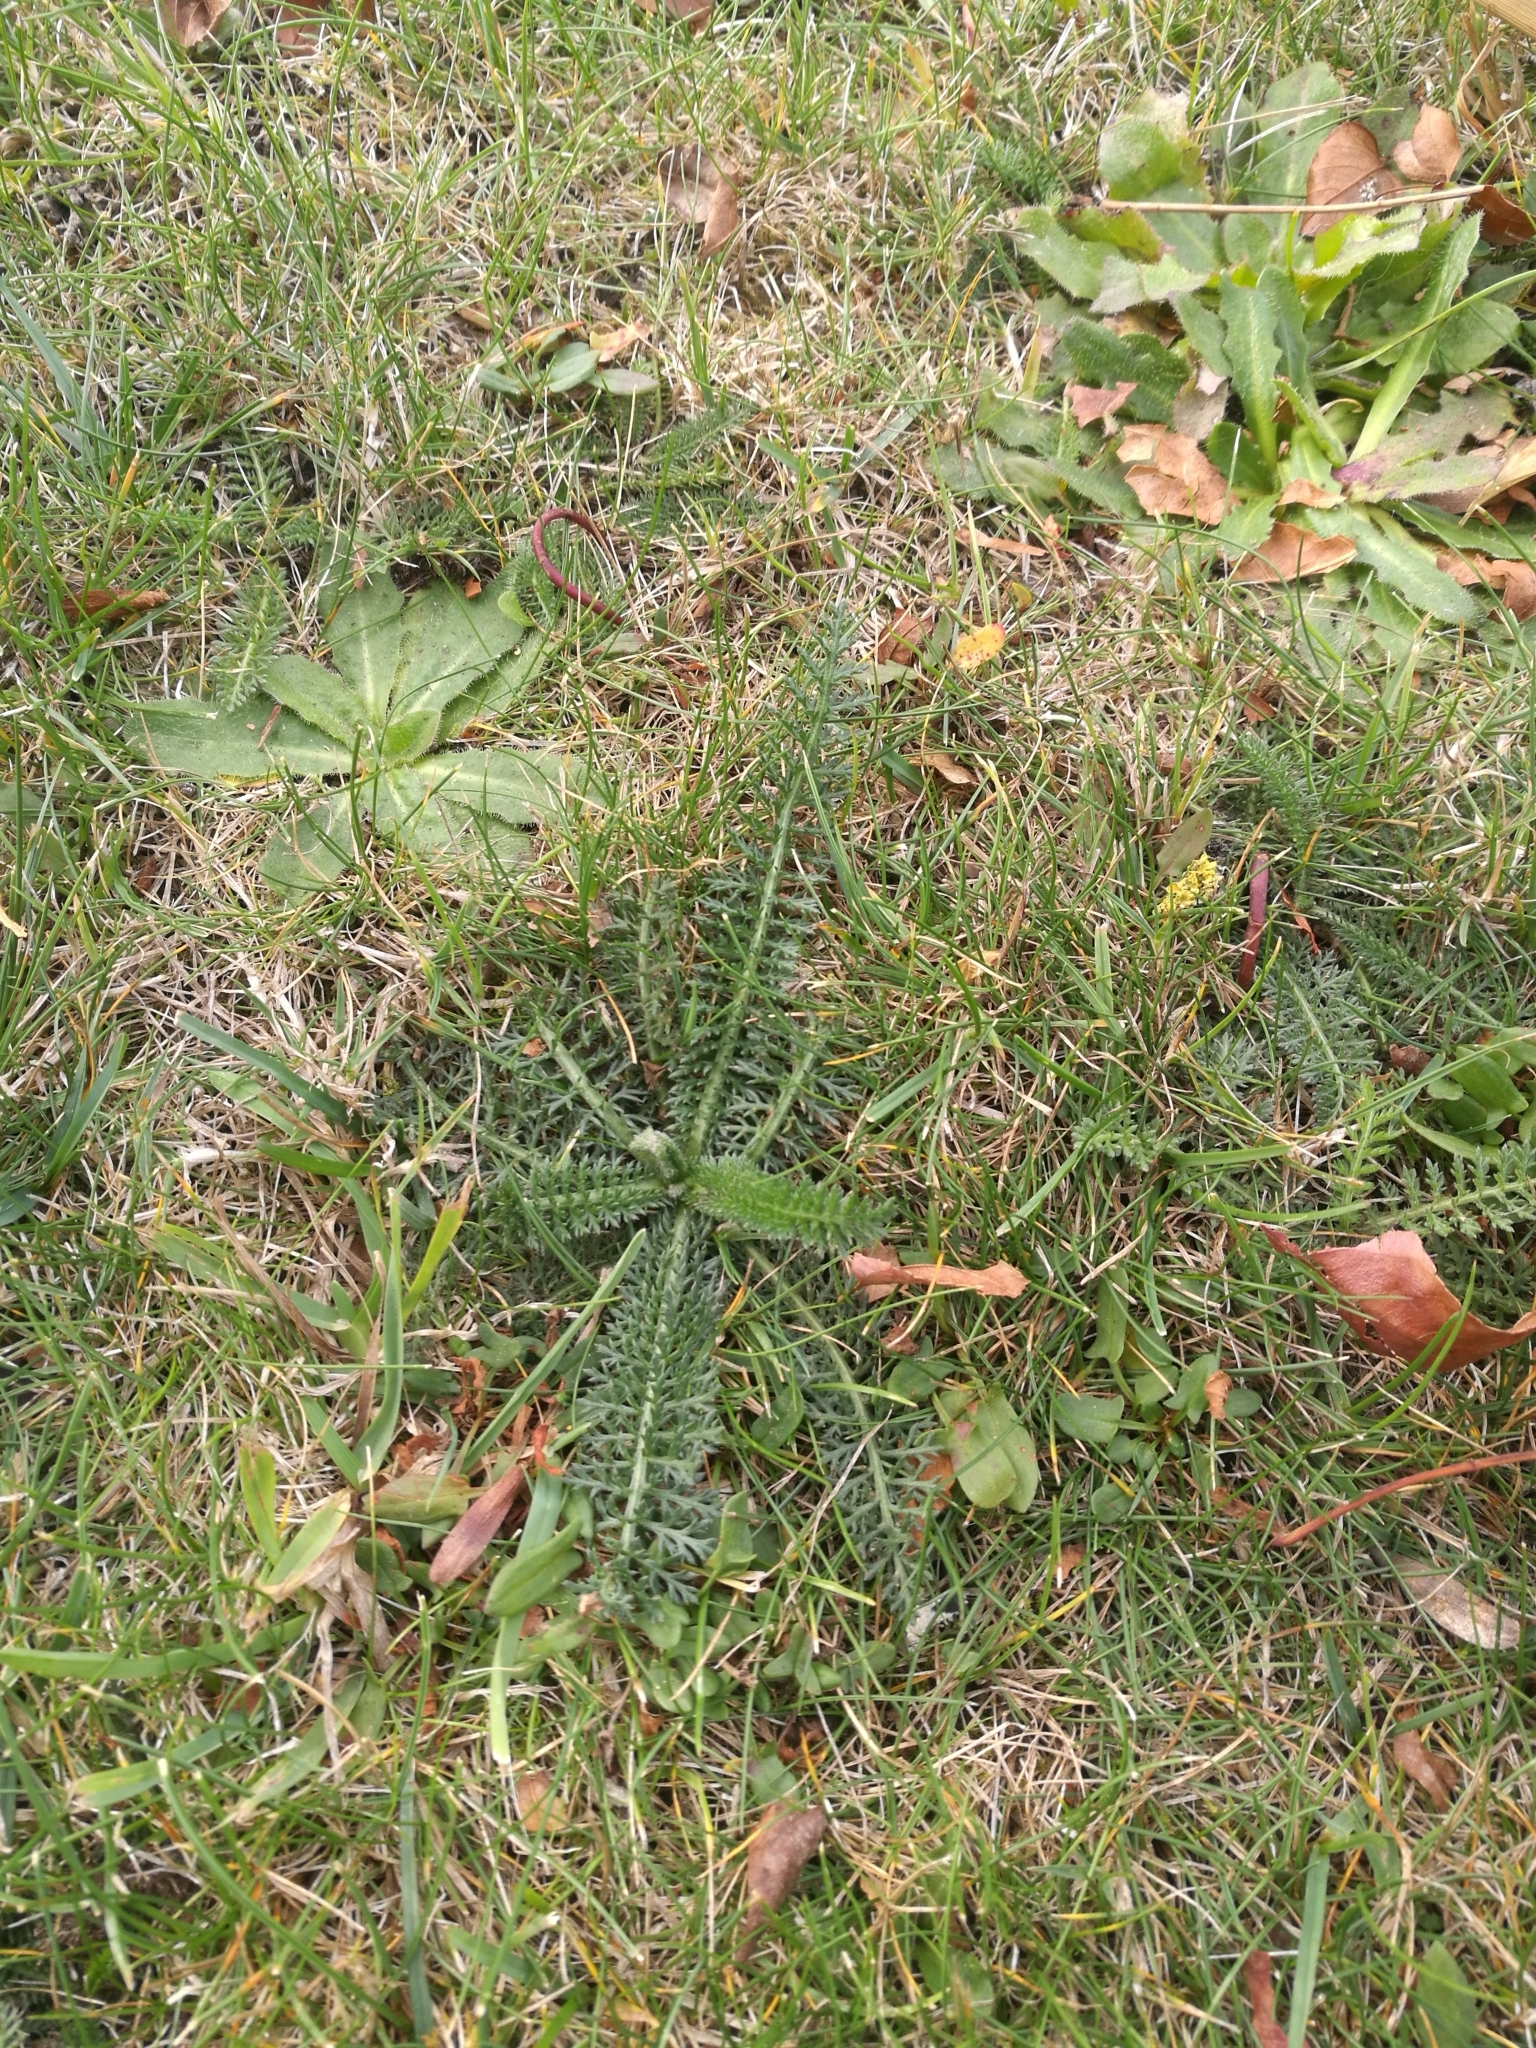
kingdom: Plantae
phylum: Tracheophyta
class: Magnoliopsida
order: Asterales
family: Asteraceae
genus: Achillea
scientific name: Achillea millefolium
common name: Yarrow
